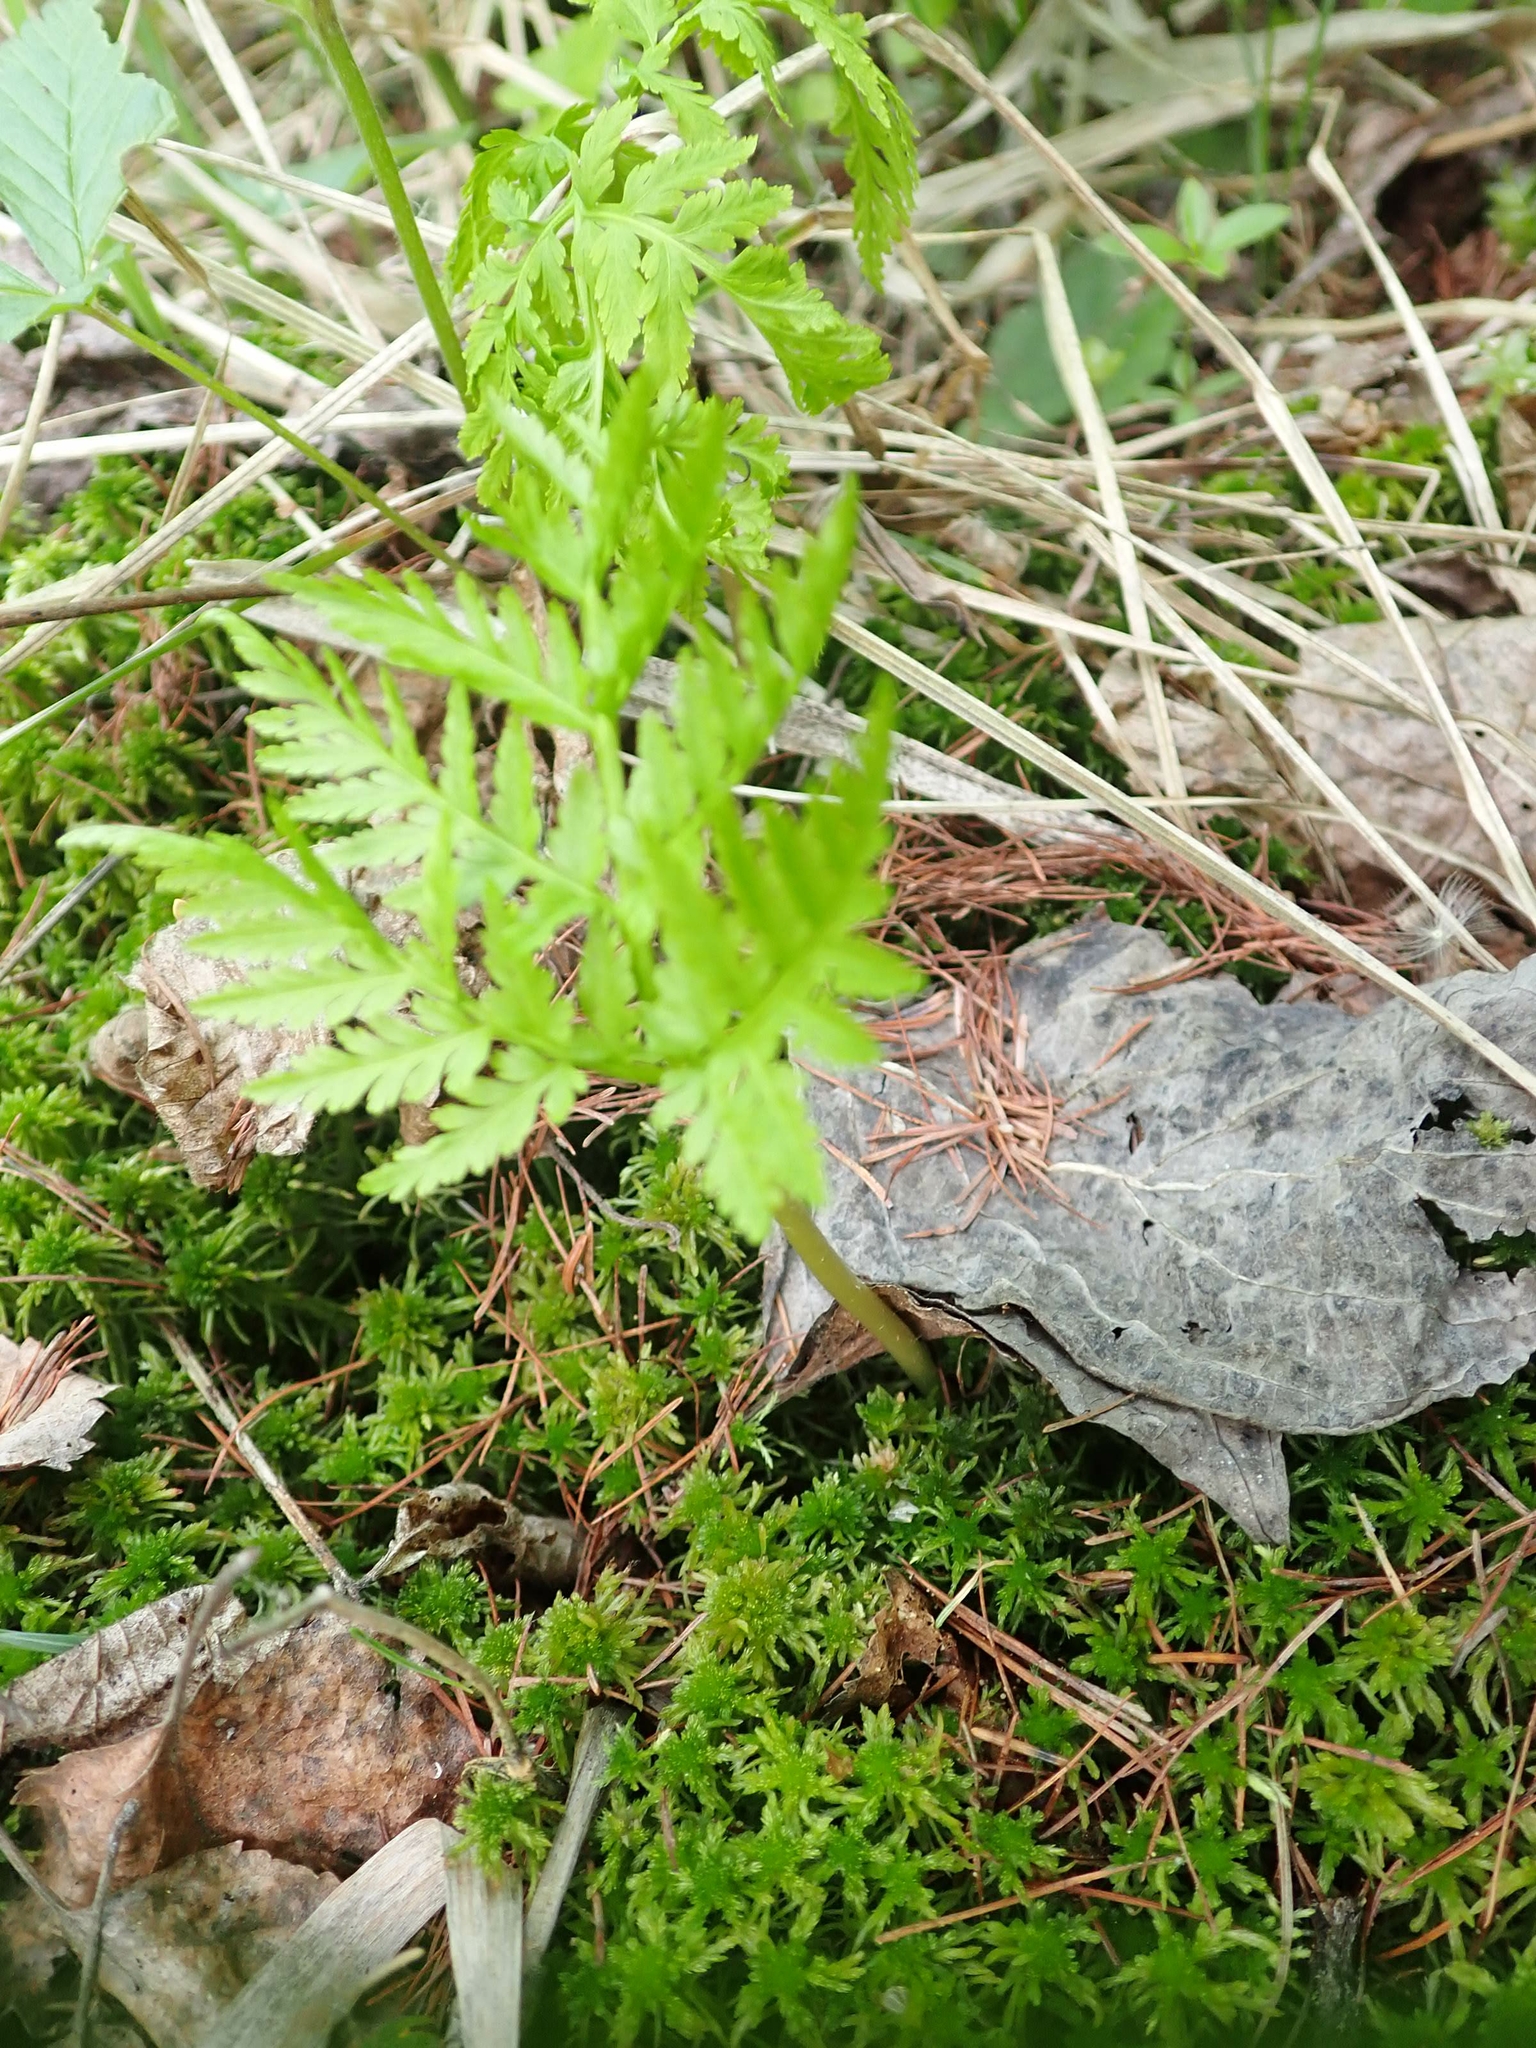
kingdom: Plantae
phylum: Tracheophyta
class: Polypodiopsida
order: Ophioglossales
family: Ophioglossaceae
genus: Botrypus
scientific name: Botrypus virginianus
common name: Common grapefern
